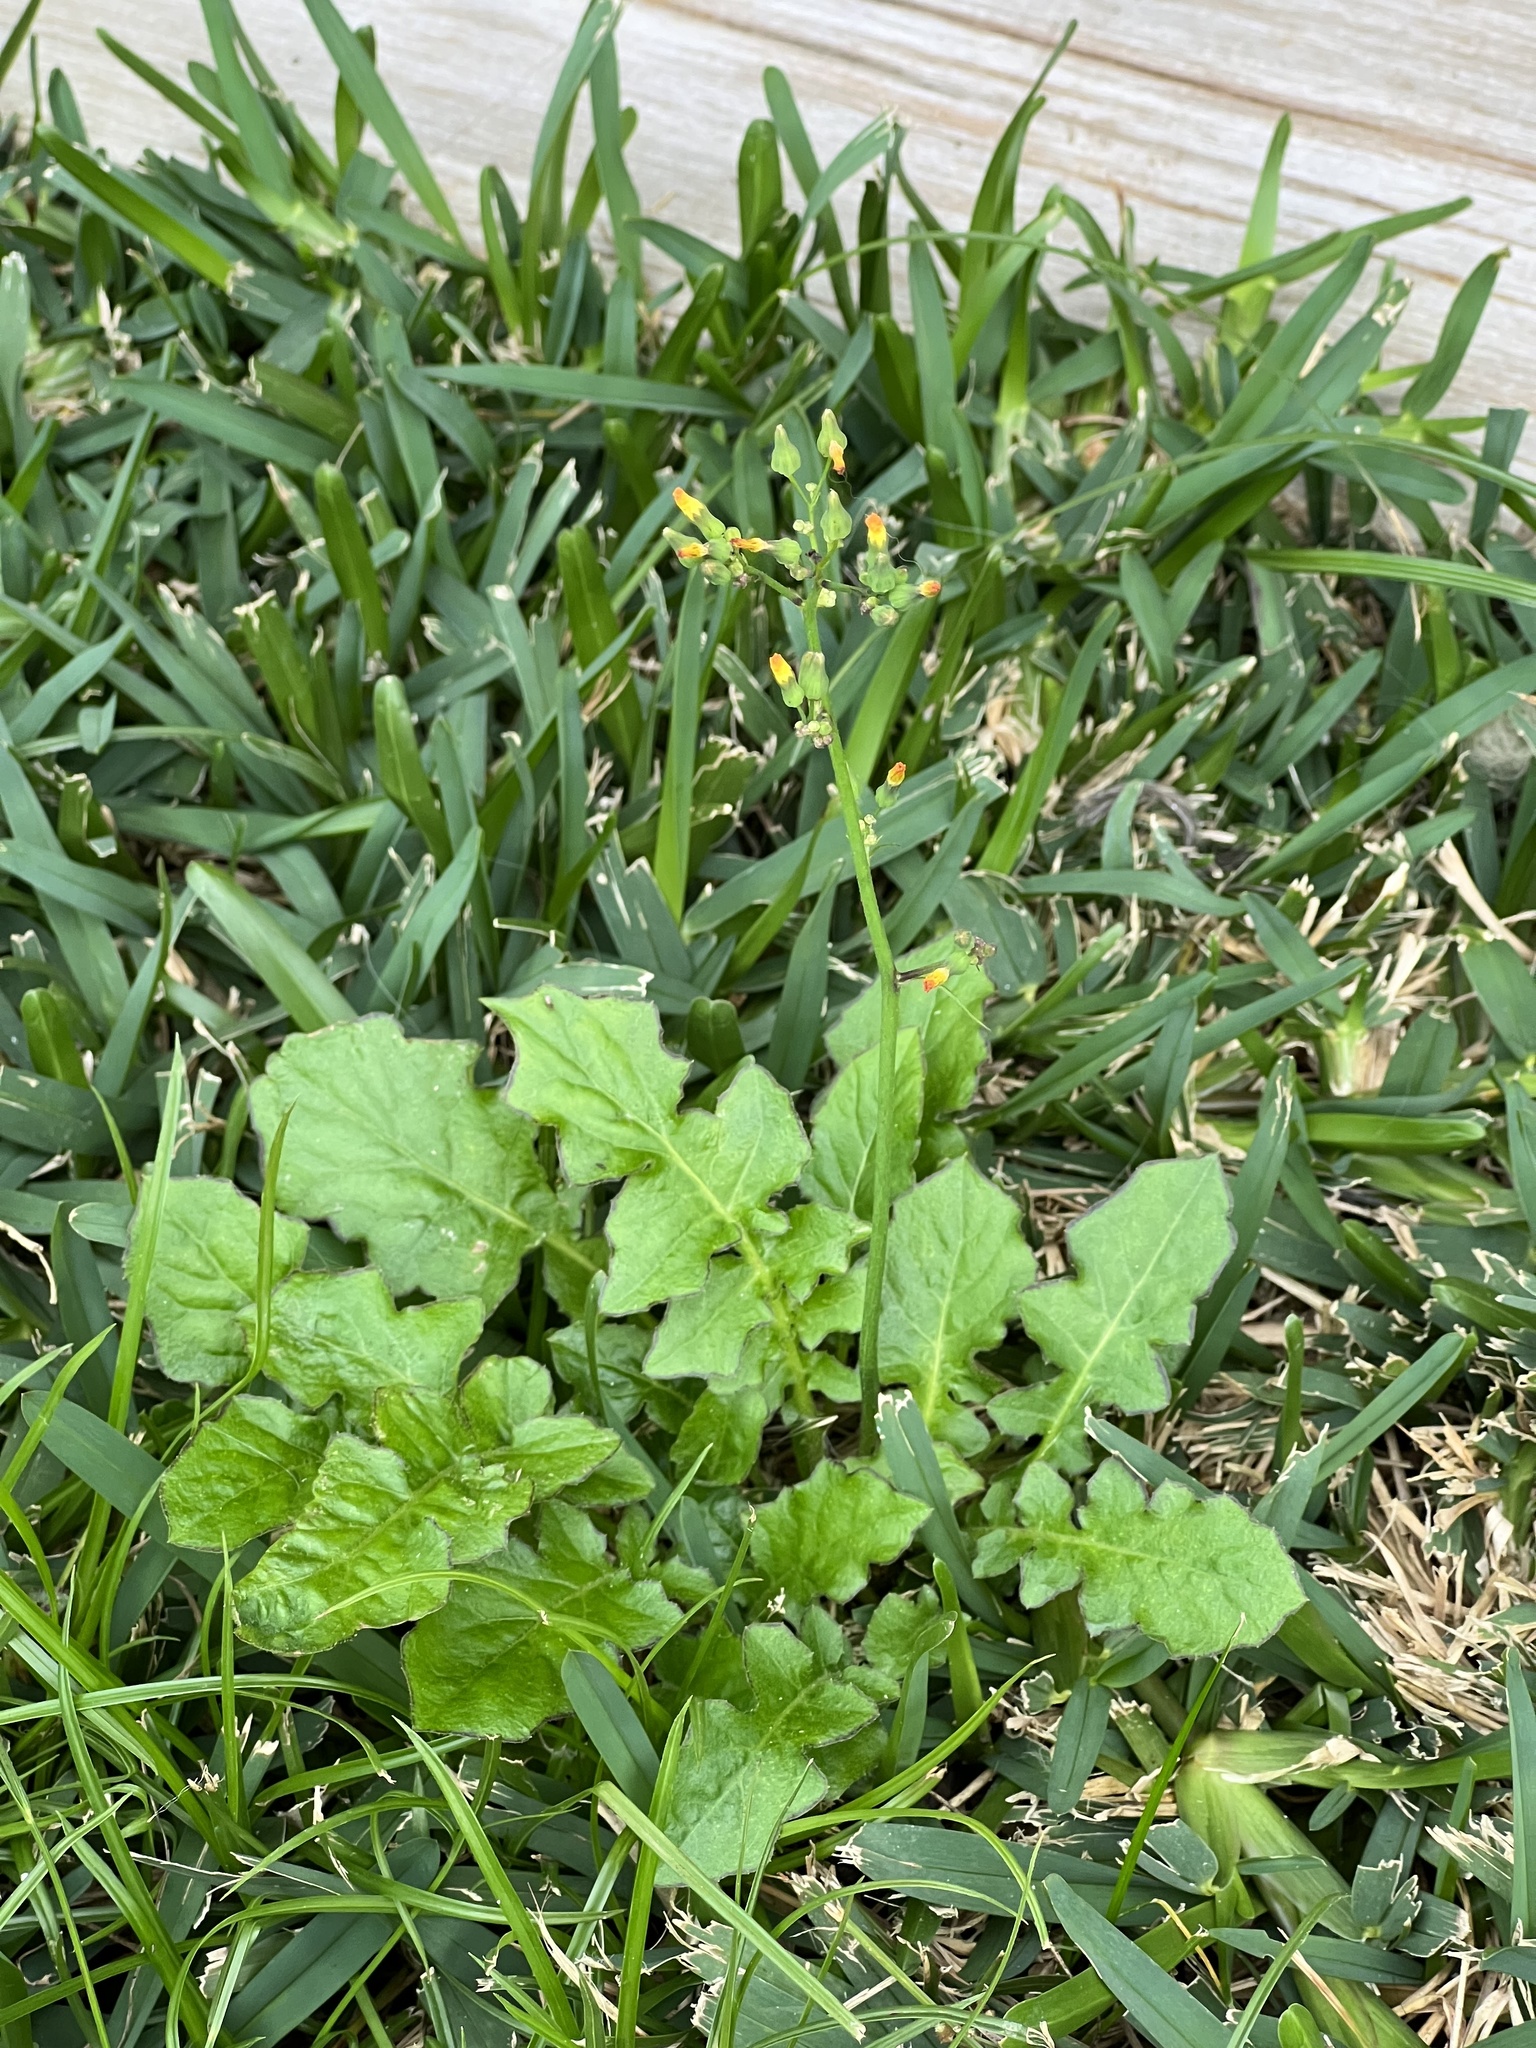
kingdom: Plantae
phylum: Tracheophyta
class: Magnoliopsida
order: Asterales
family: Asteraceae
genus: Youngia
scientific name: Youngia japonica
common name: Oriental false hawksbeard
